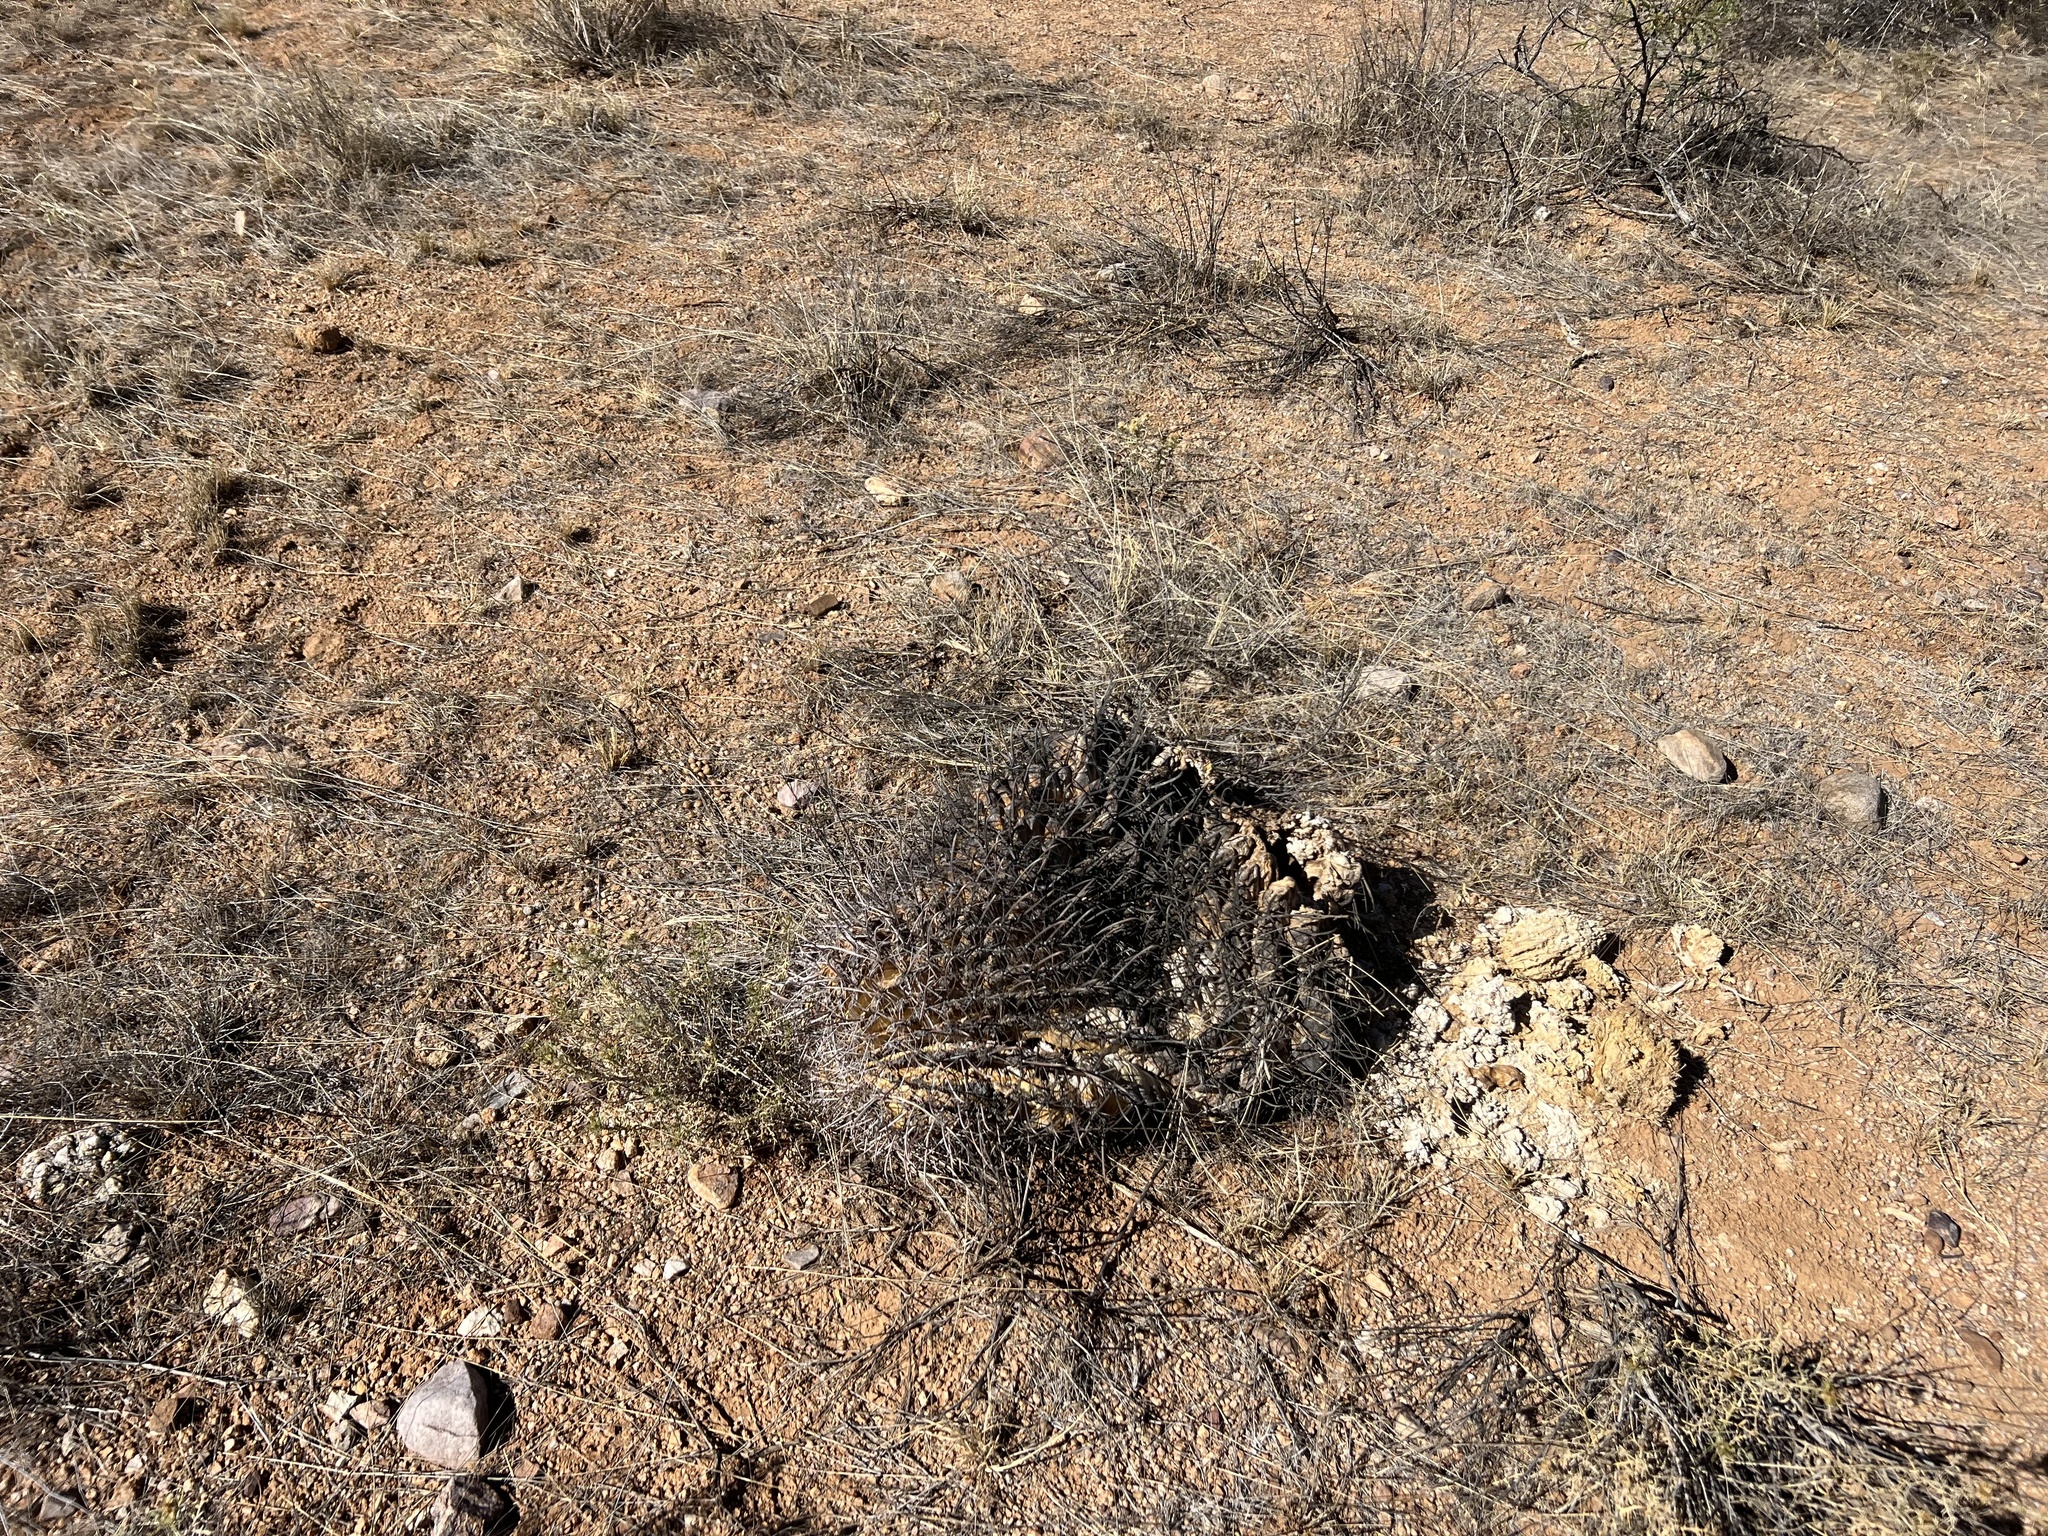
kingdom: Plantae
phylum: Tracheophyta
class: Magnoliopsida
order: Caryophyllales
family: Cactaceae
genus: Ferocactus
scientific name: Ferocactus wislizeni
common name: Candy barrel cactus
